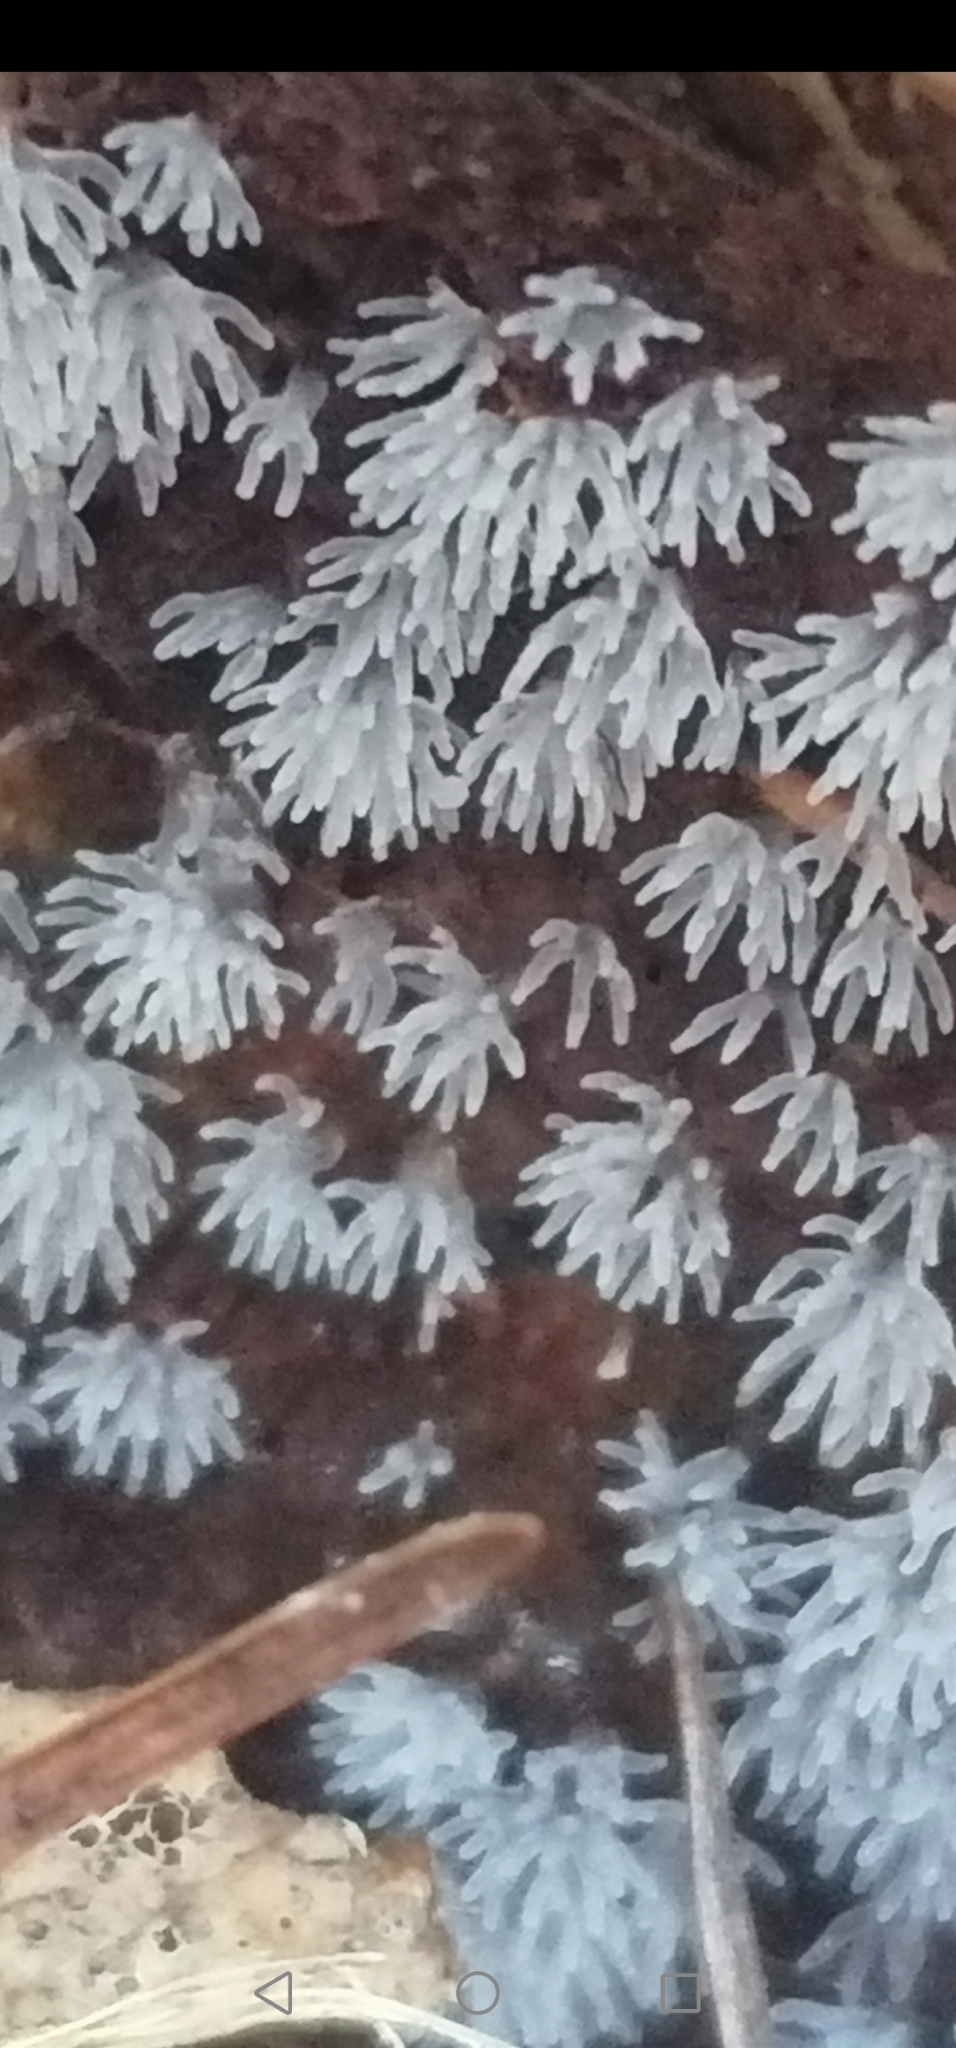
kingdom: Protozoa
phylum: Mycetozoa
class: Protosteliomycetes
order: Ceratiomyxales
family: Ceratiomyxaceae
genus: Ceratiomyxa
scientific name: Ceratiomyxa fruticulosa
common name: Honeycomb coral slime mold
